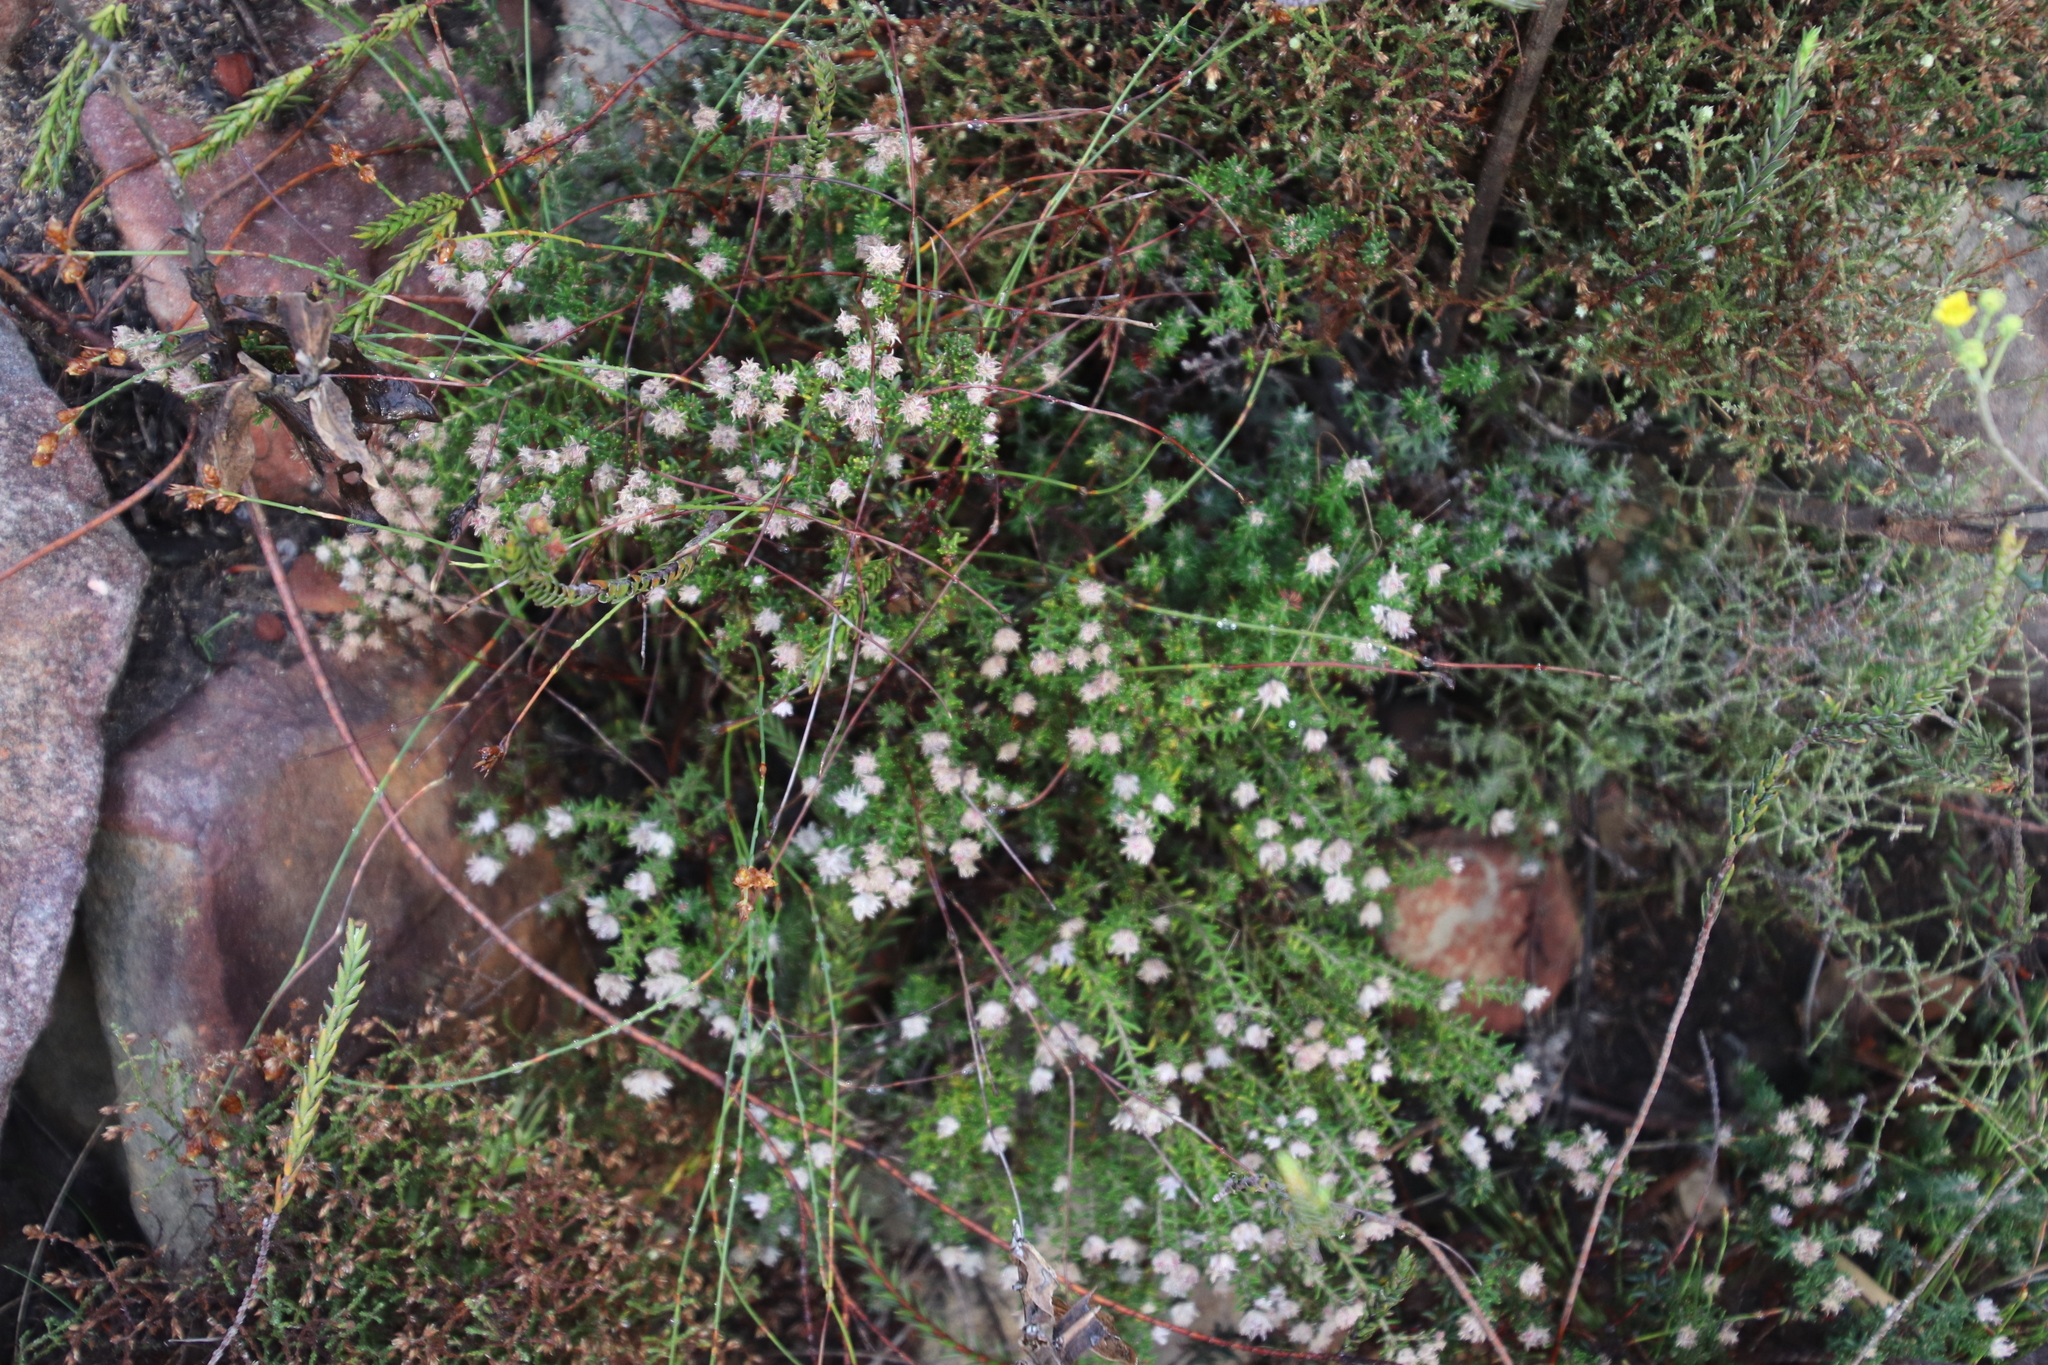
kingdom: Plantae
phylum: Tracheophyta
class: Magnoliopsida
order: Rosales
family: Rhamnaceae
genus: Trichocephalus
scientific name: Trichocephalus stipularis
